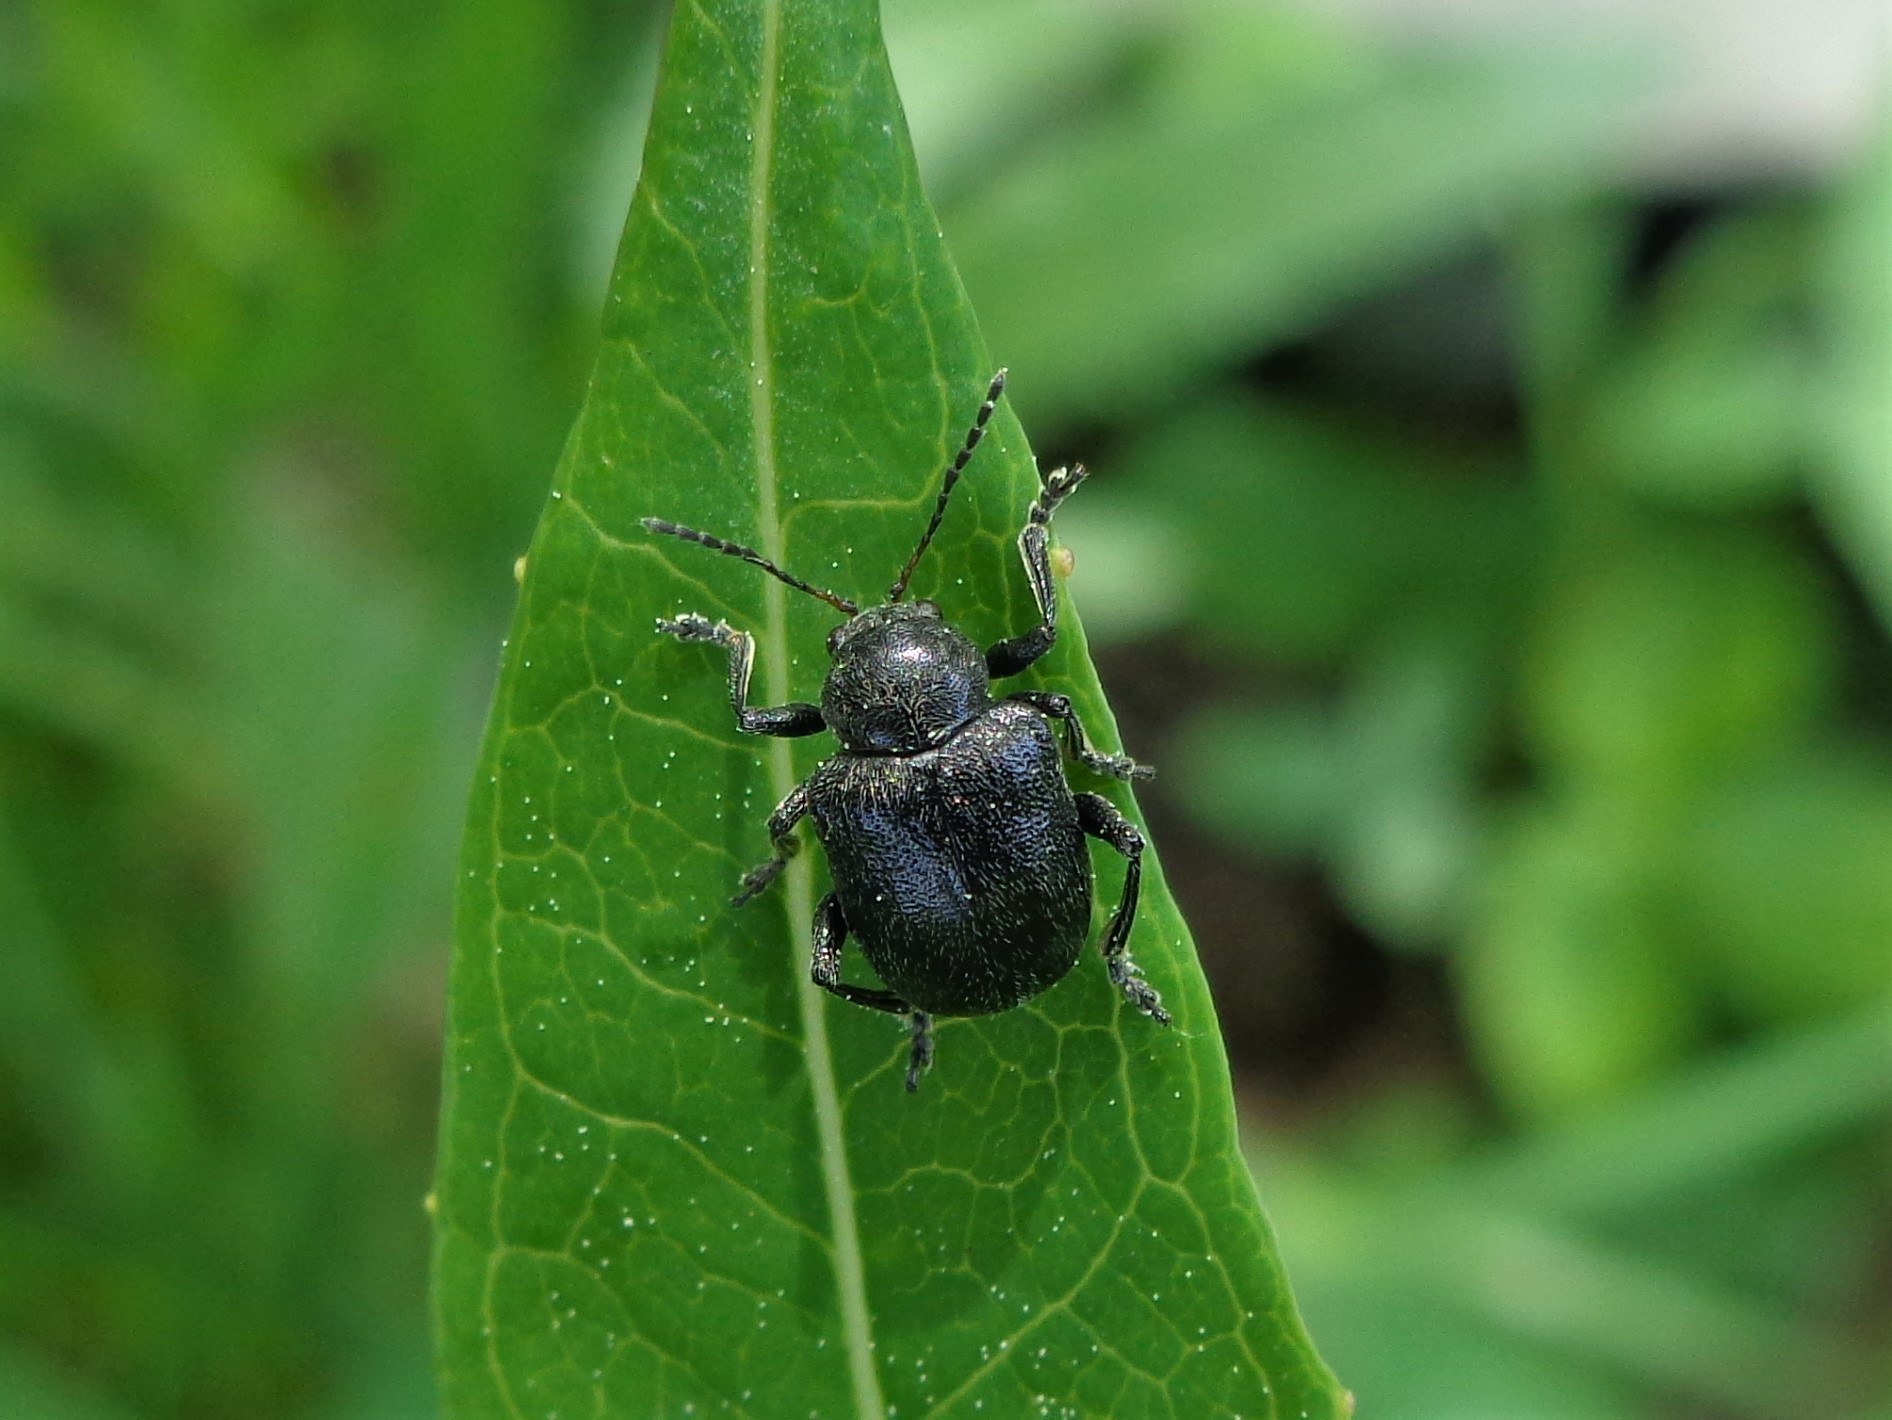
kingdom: Animalia
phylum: Arthropoda
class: Insecta
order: Coleoptera
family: Chrysomelidae
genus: Bromius
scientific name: Bromius obscurus
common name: Western grape rootworm
